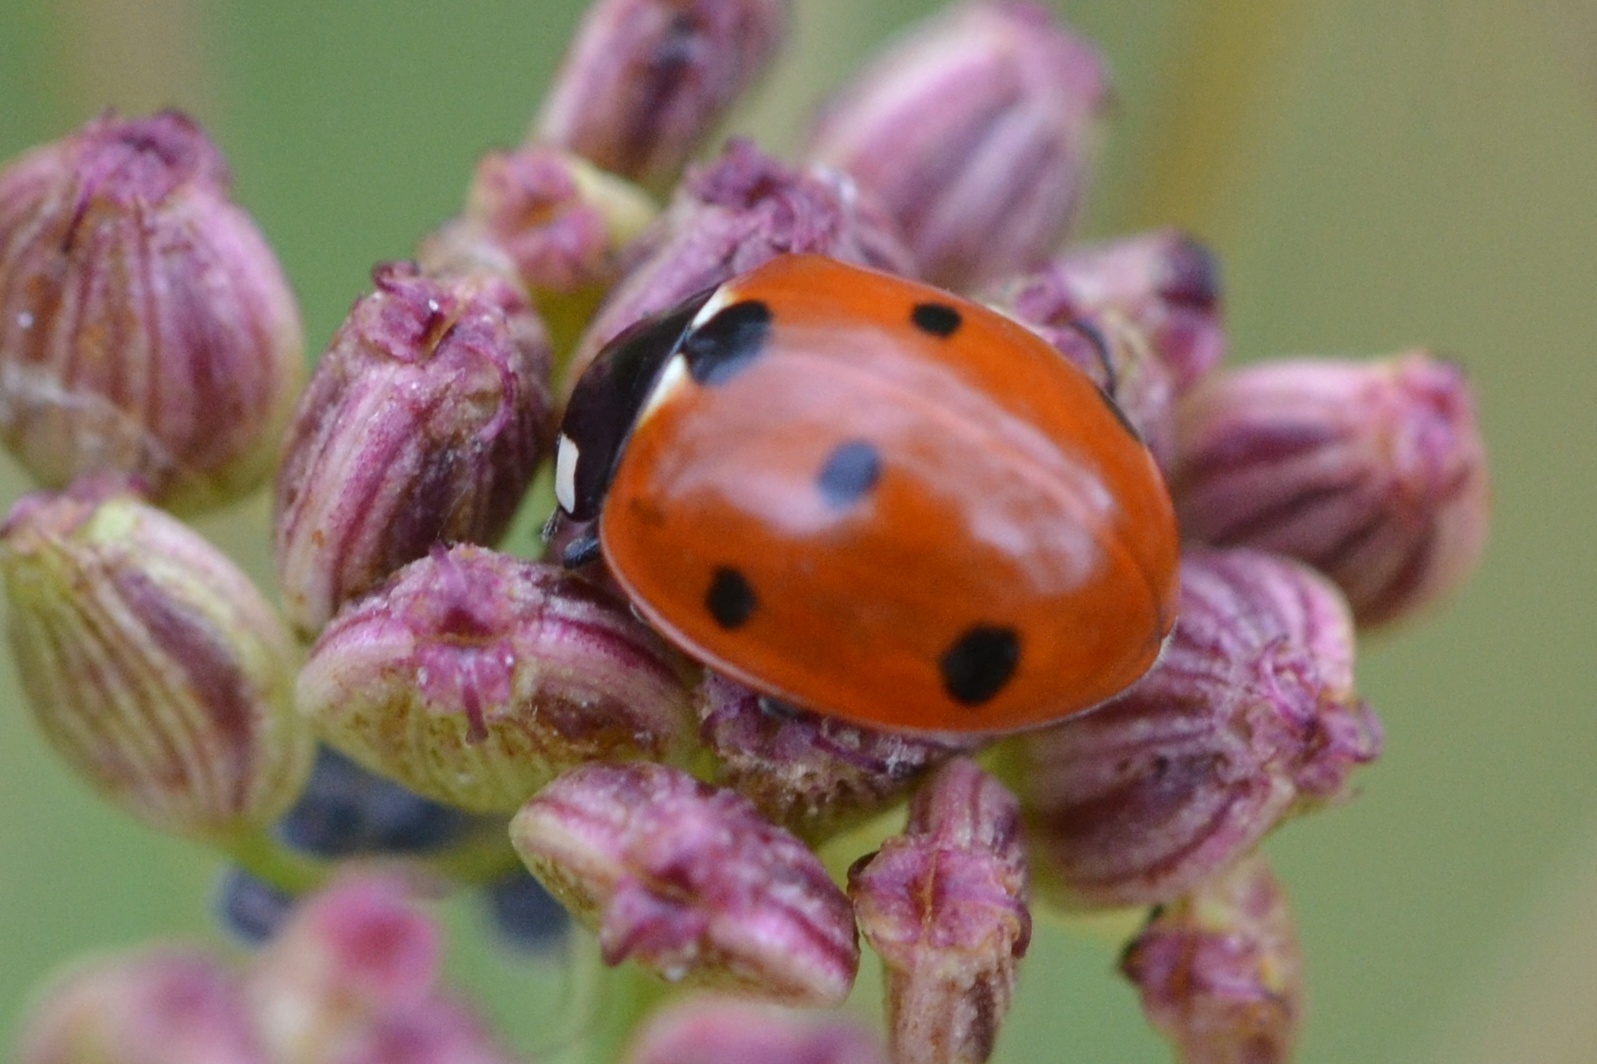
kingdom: Animalia
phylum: Arthropoda
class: Insecta
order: Coleoptera
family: Coccinellidae
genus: Coccinella
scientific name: Coccinella septempunctata
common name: Sevenspotted lady beetle
